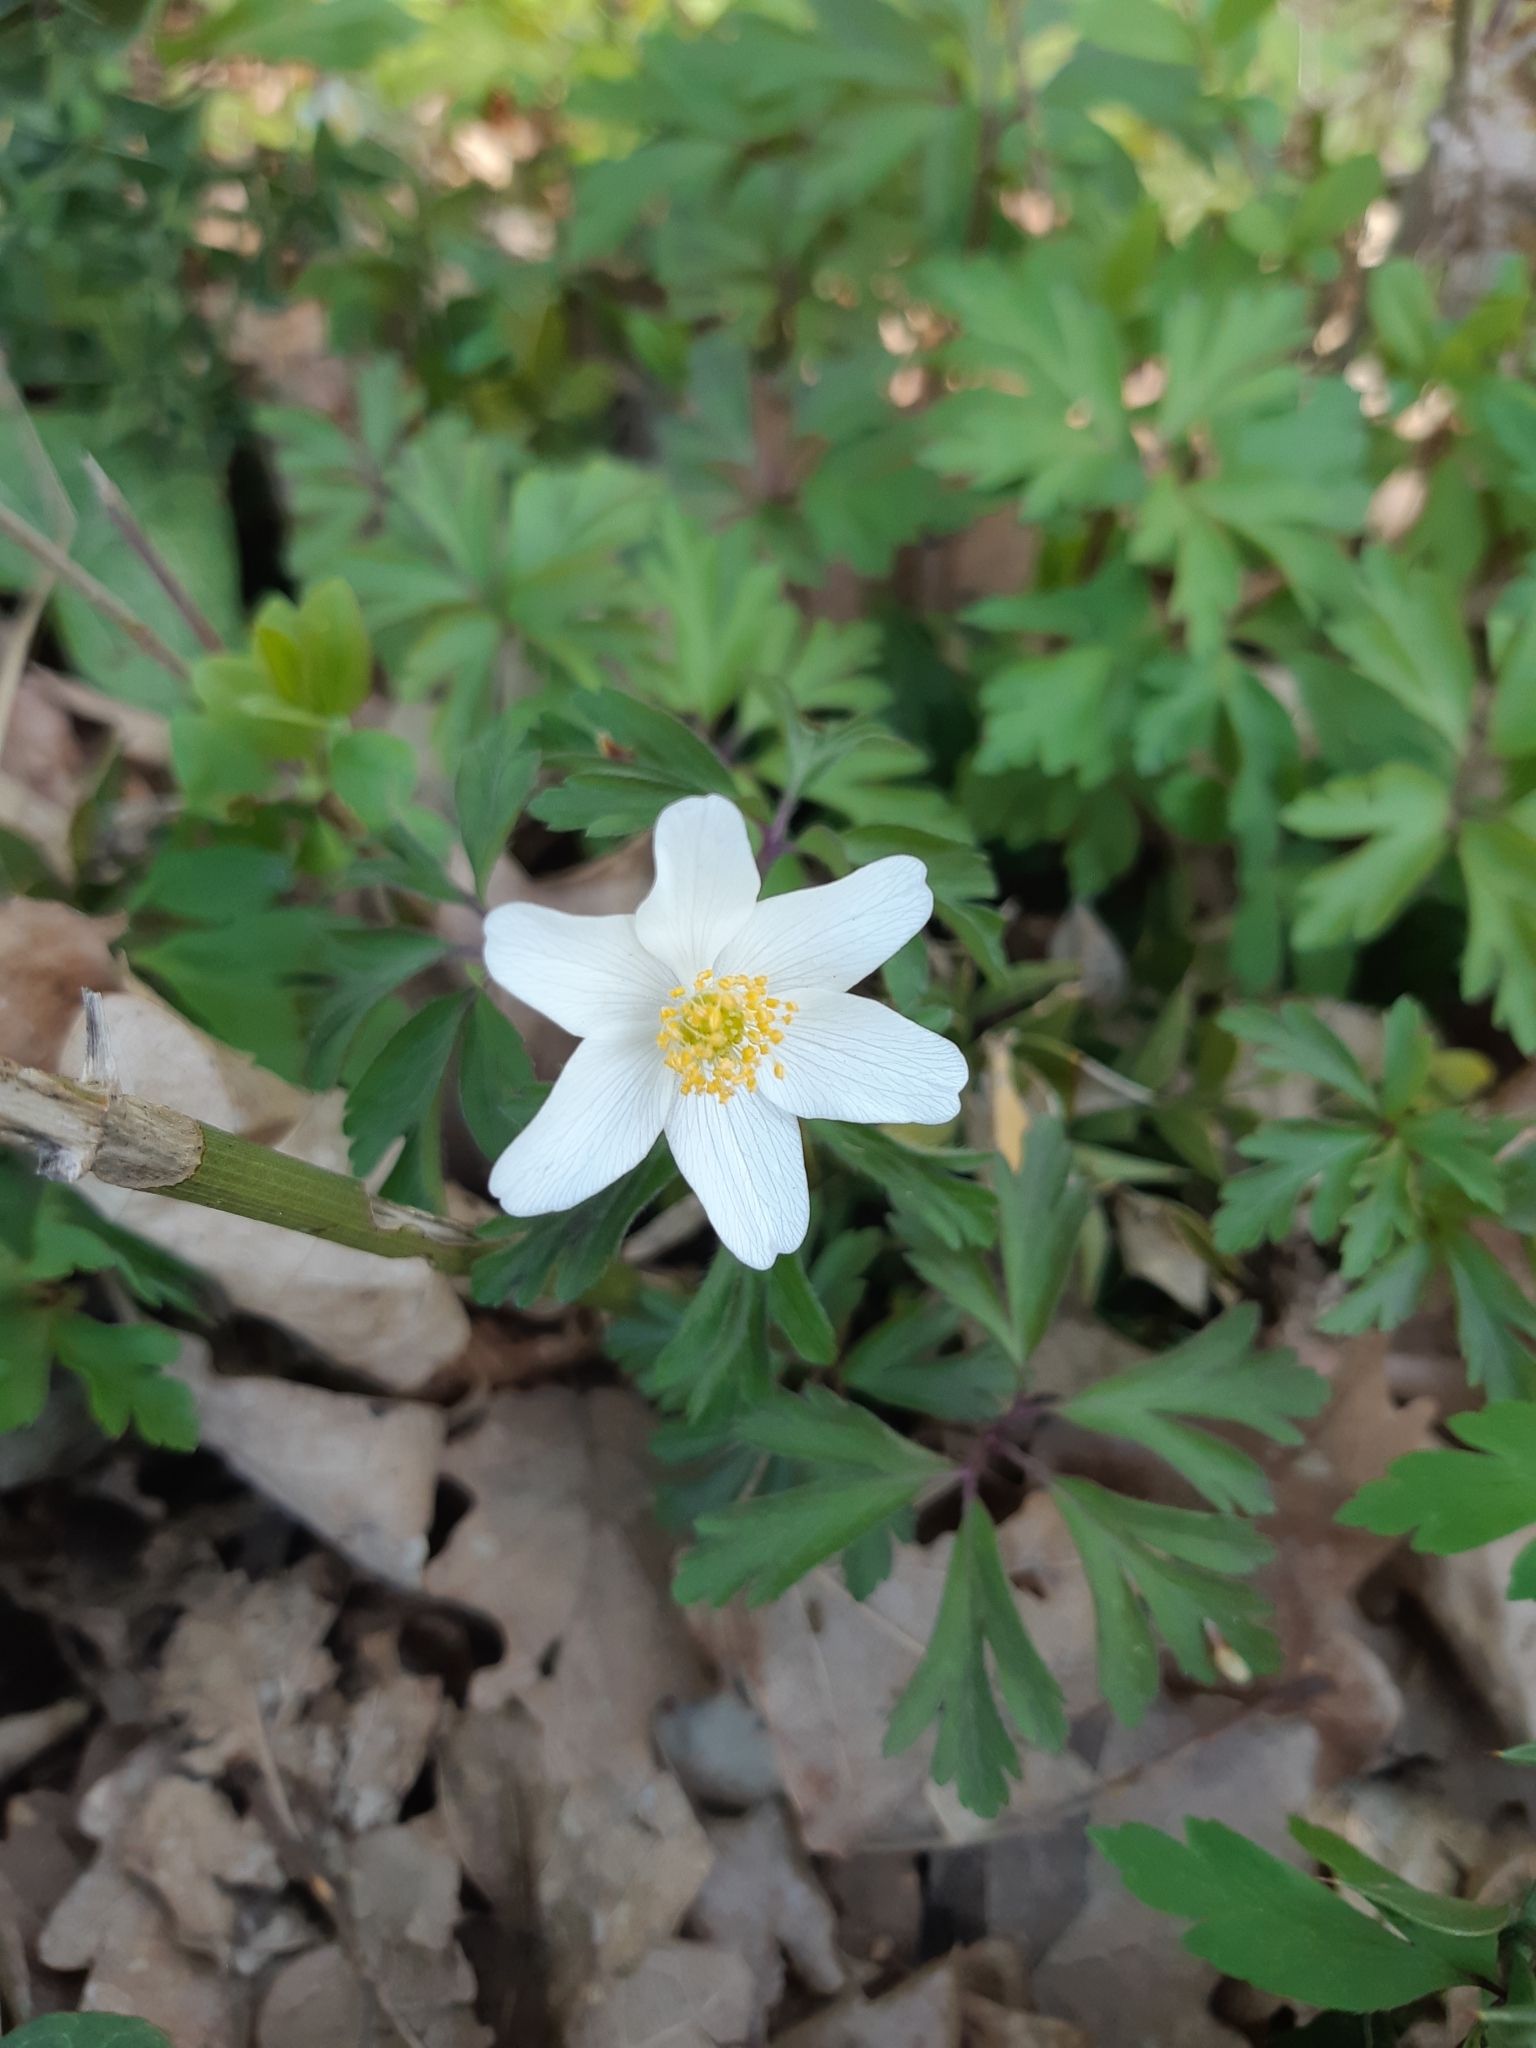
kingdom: Plantae
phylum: Tracheophyta
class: Magnoliopsida
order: Ranunculales
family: Ranunculaceae
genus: Anemone
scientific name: Anemone nemorosa
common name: Wood anemone
